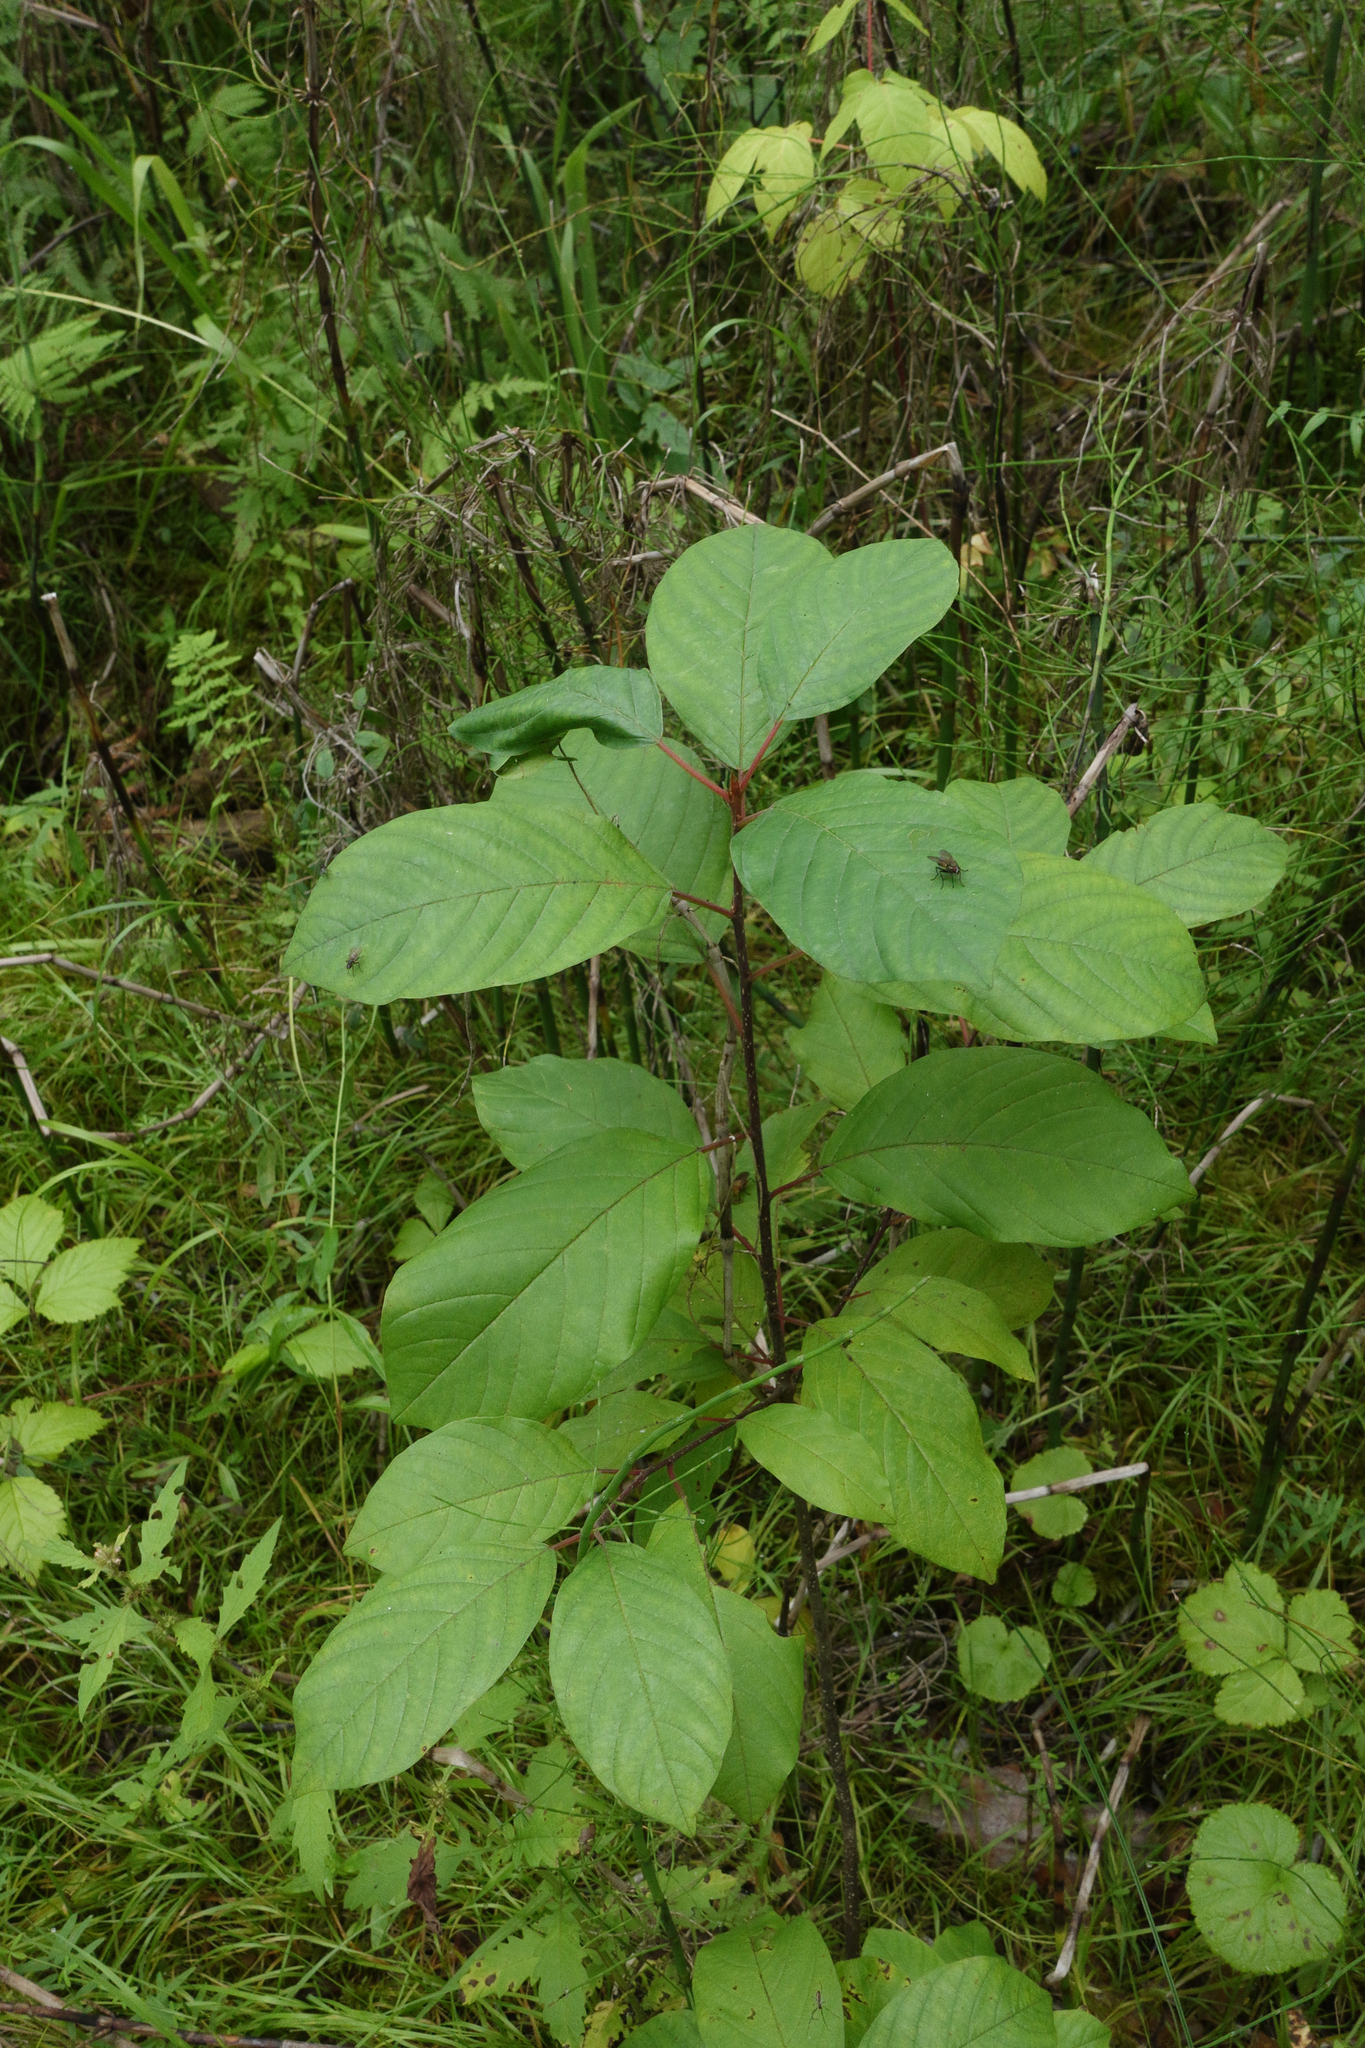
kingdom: Plantae
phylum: Tracheophyta
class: Magnoliopsida
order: Rosales
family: Rhamnaceae
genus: Frangula
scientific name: Frangula alnus
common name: Alder buckthorn
